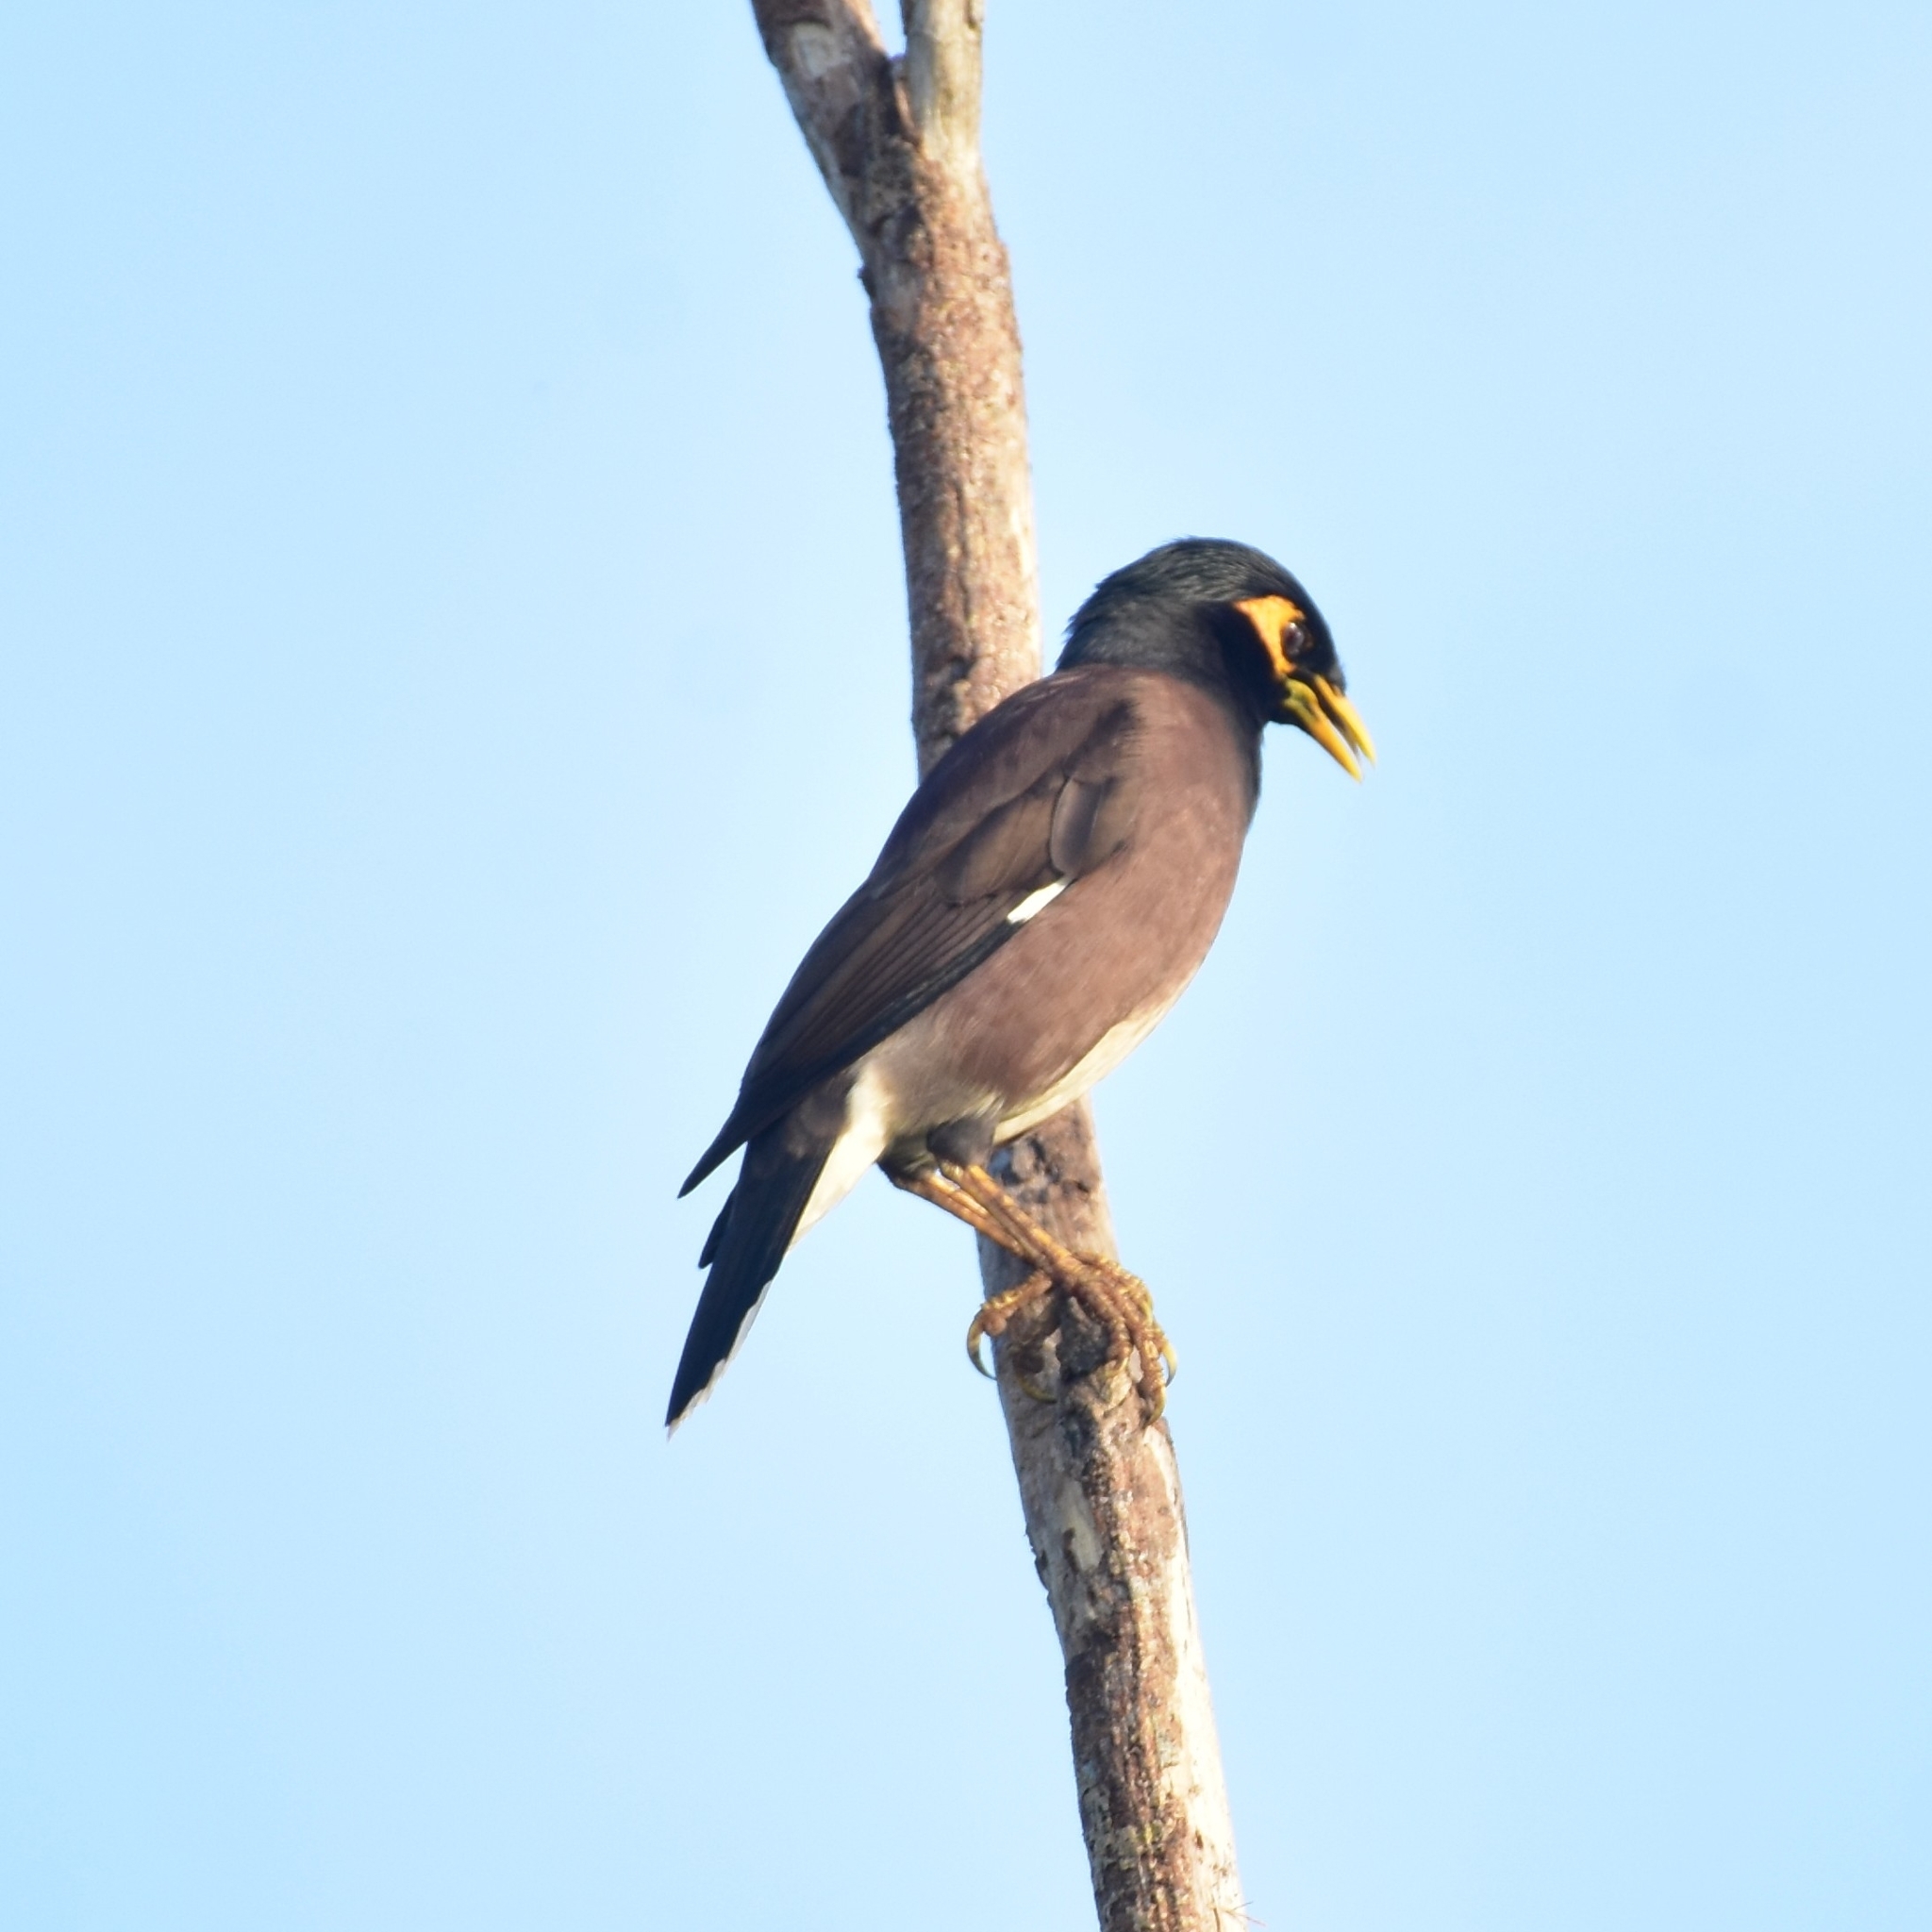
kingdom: Animalia
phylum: Chordata
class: Aves
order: Passeriformes
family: Sturnidae
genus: Acridotheres
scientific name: Acridotheres tristis
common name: Common myna
